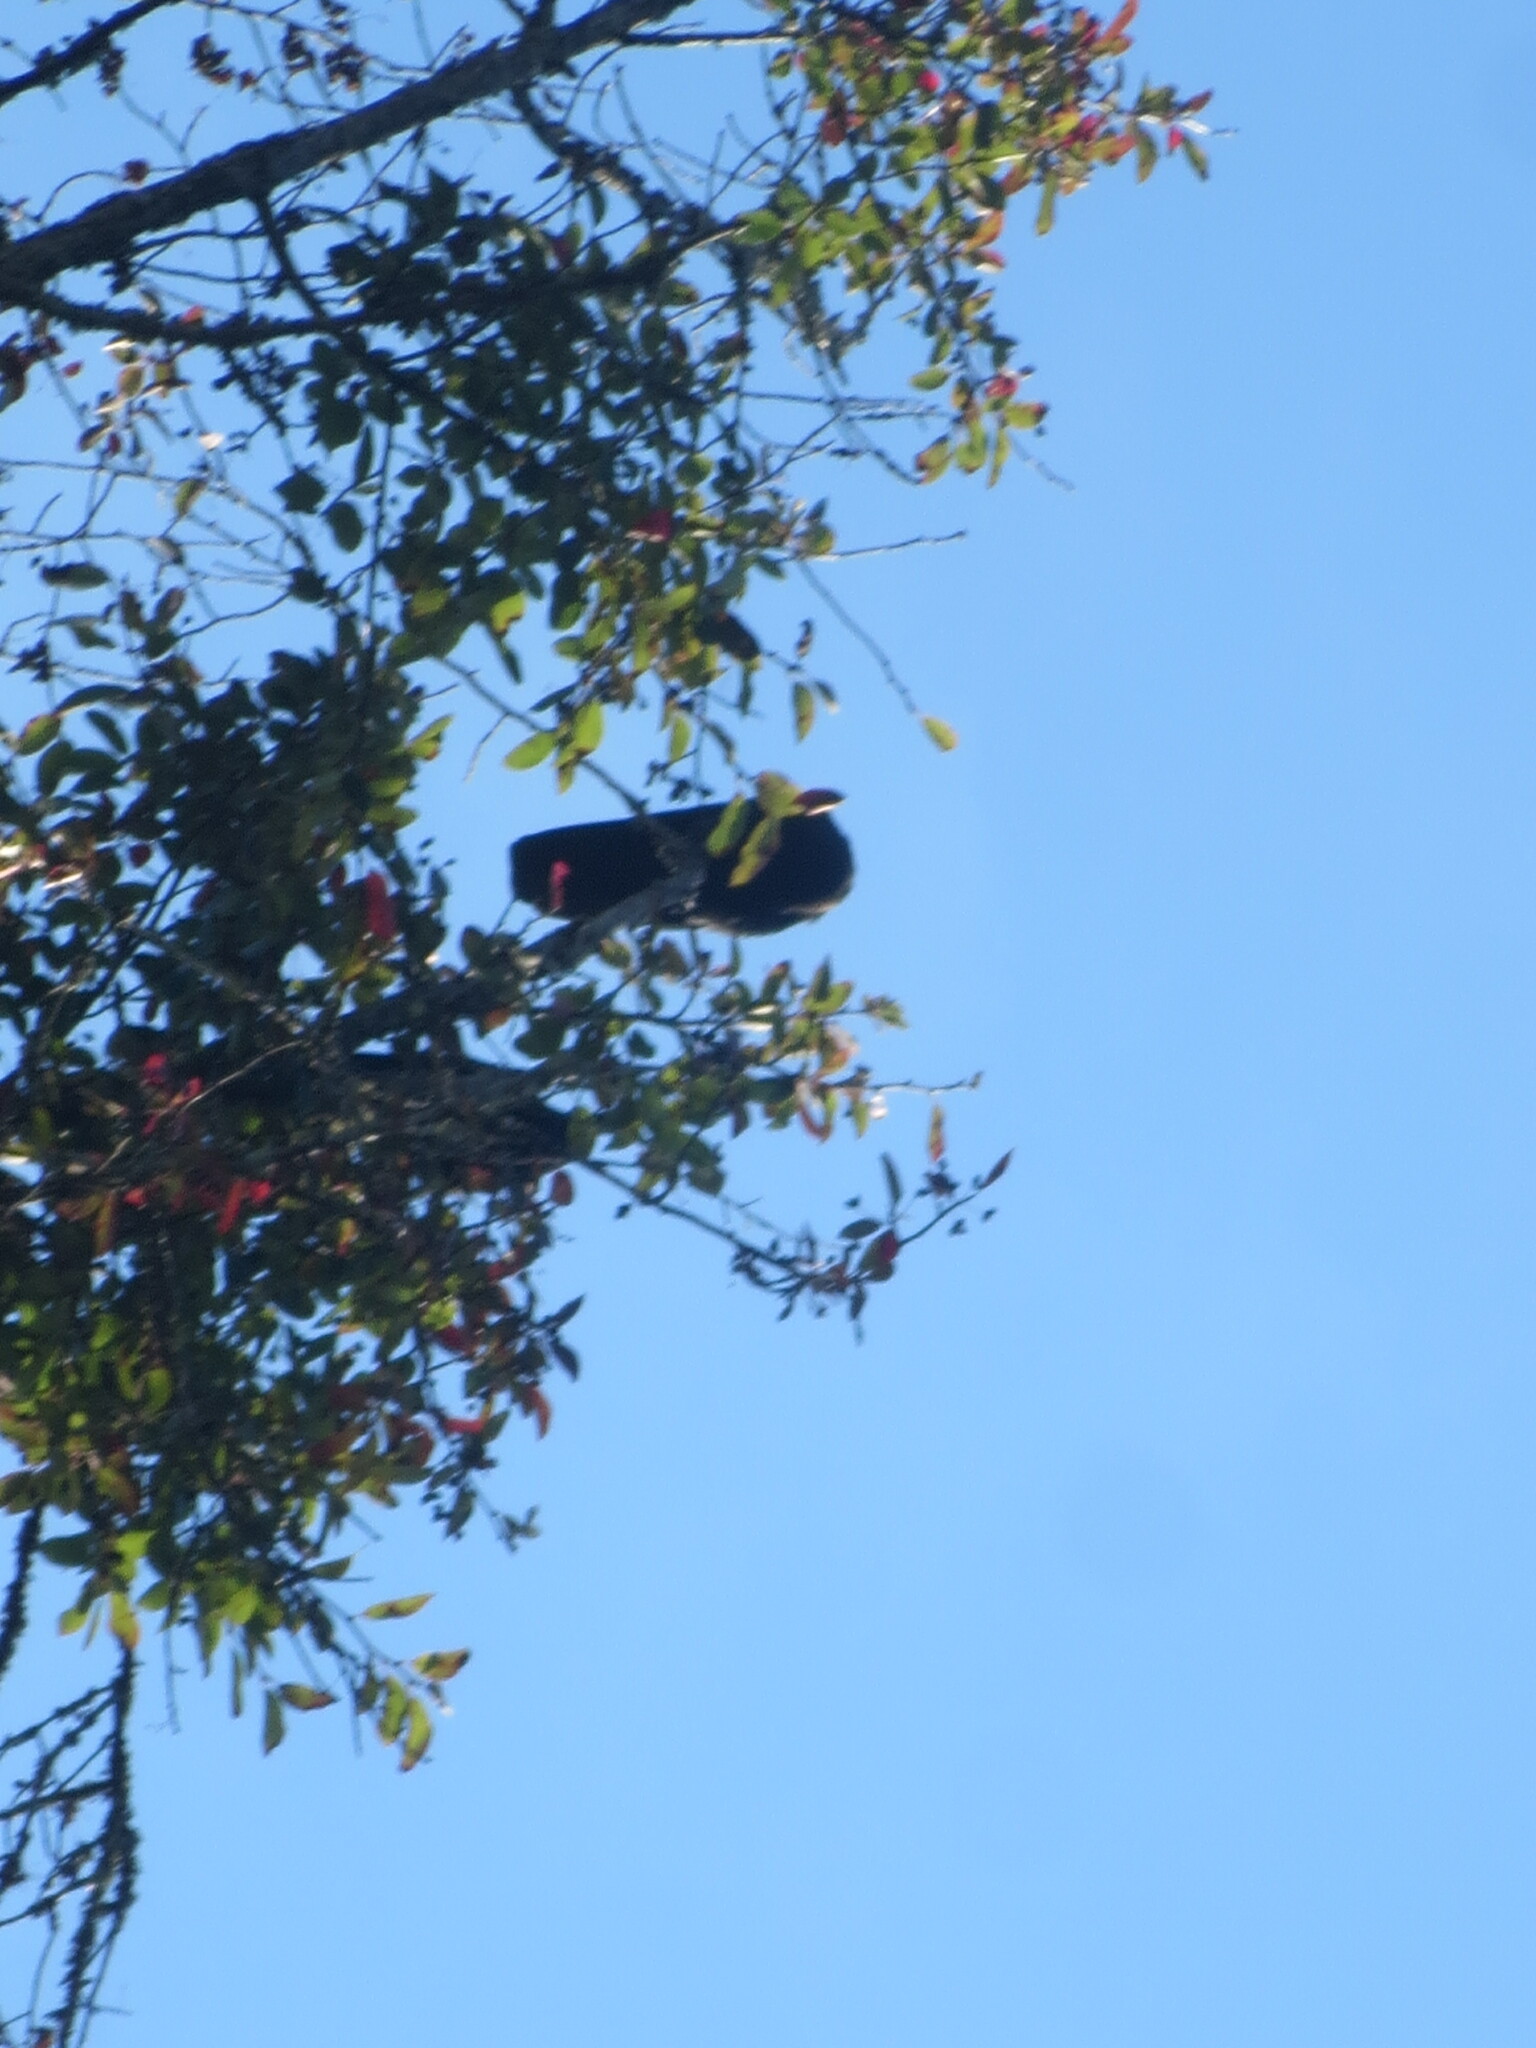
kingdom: Animalia
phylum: Chordata
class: Aves
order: Passeriformes
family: Corvidae
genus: Corvus
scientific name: Corvus brachyrhynchos
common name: American crow
